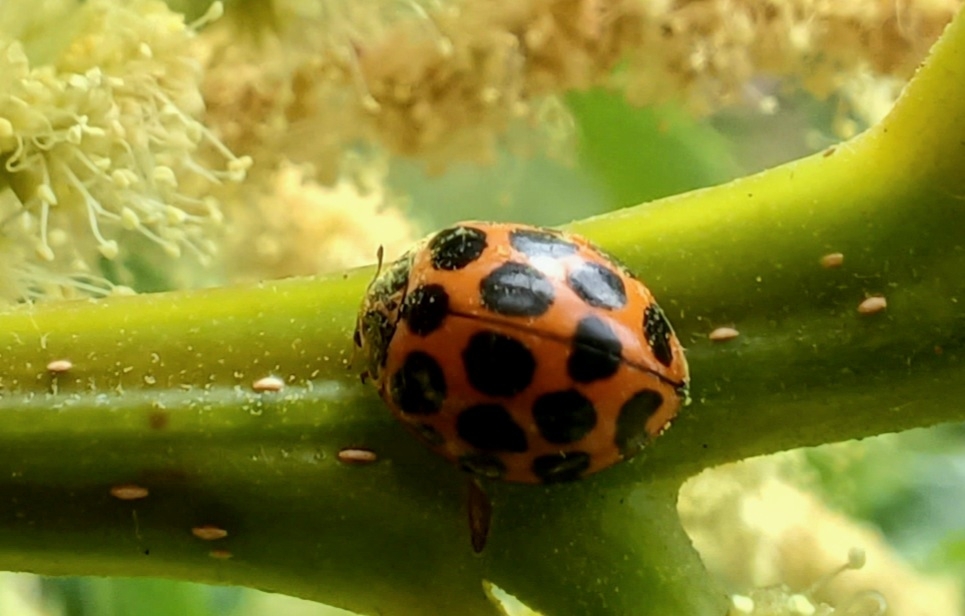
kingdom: Animalia
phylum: Arthropoda
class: Insecta
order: Coleoptera
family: Coccinellidae
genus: Harmonia
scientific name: Harmonia conformis
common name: Common spotted ladybird beetle
